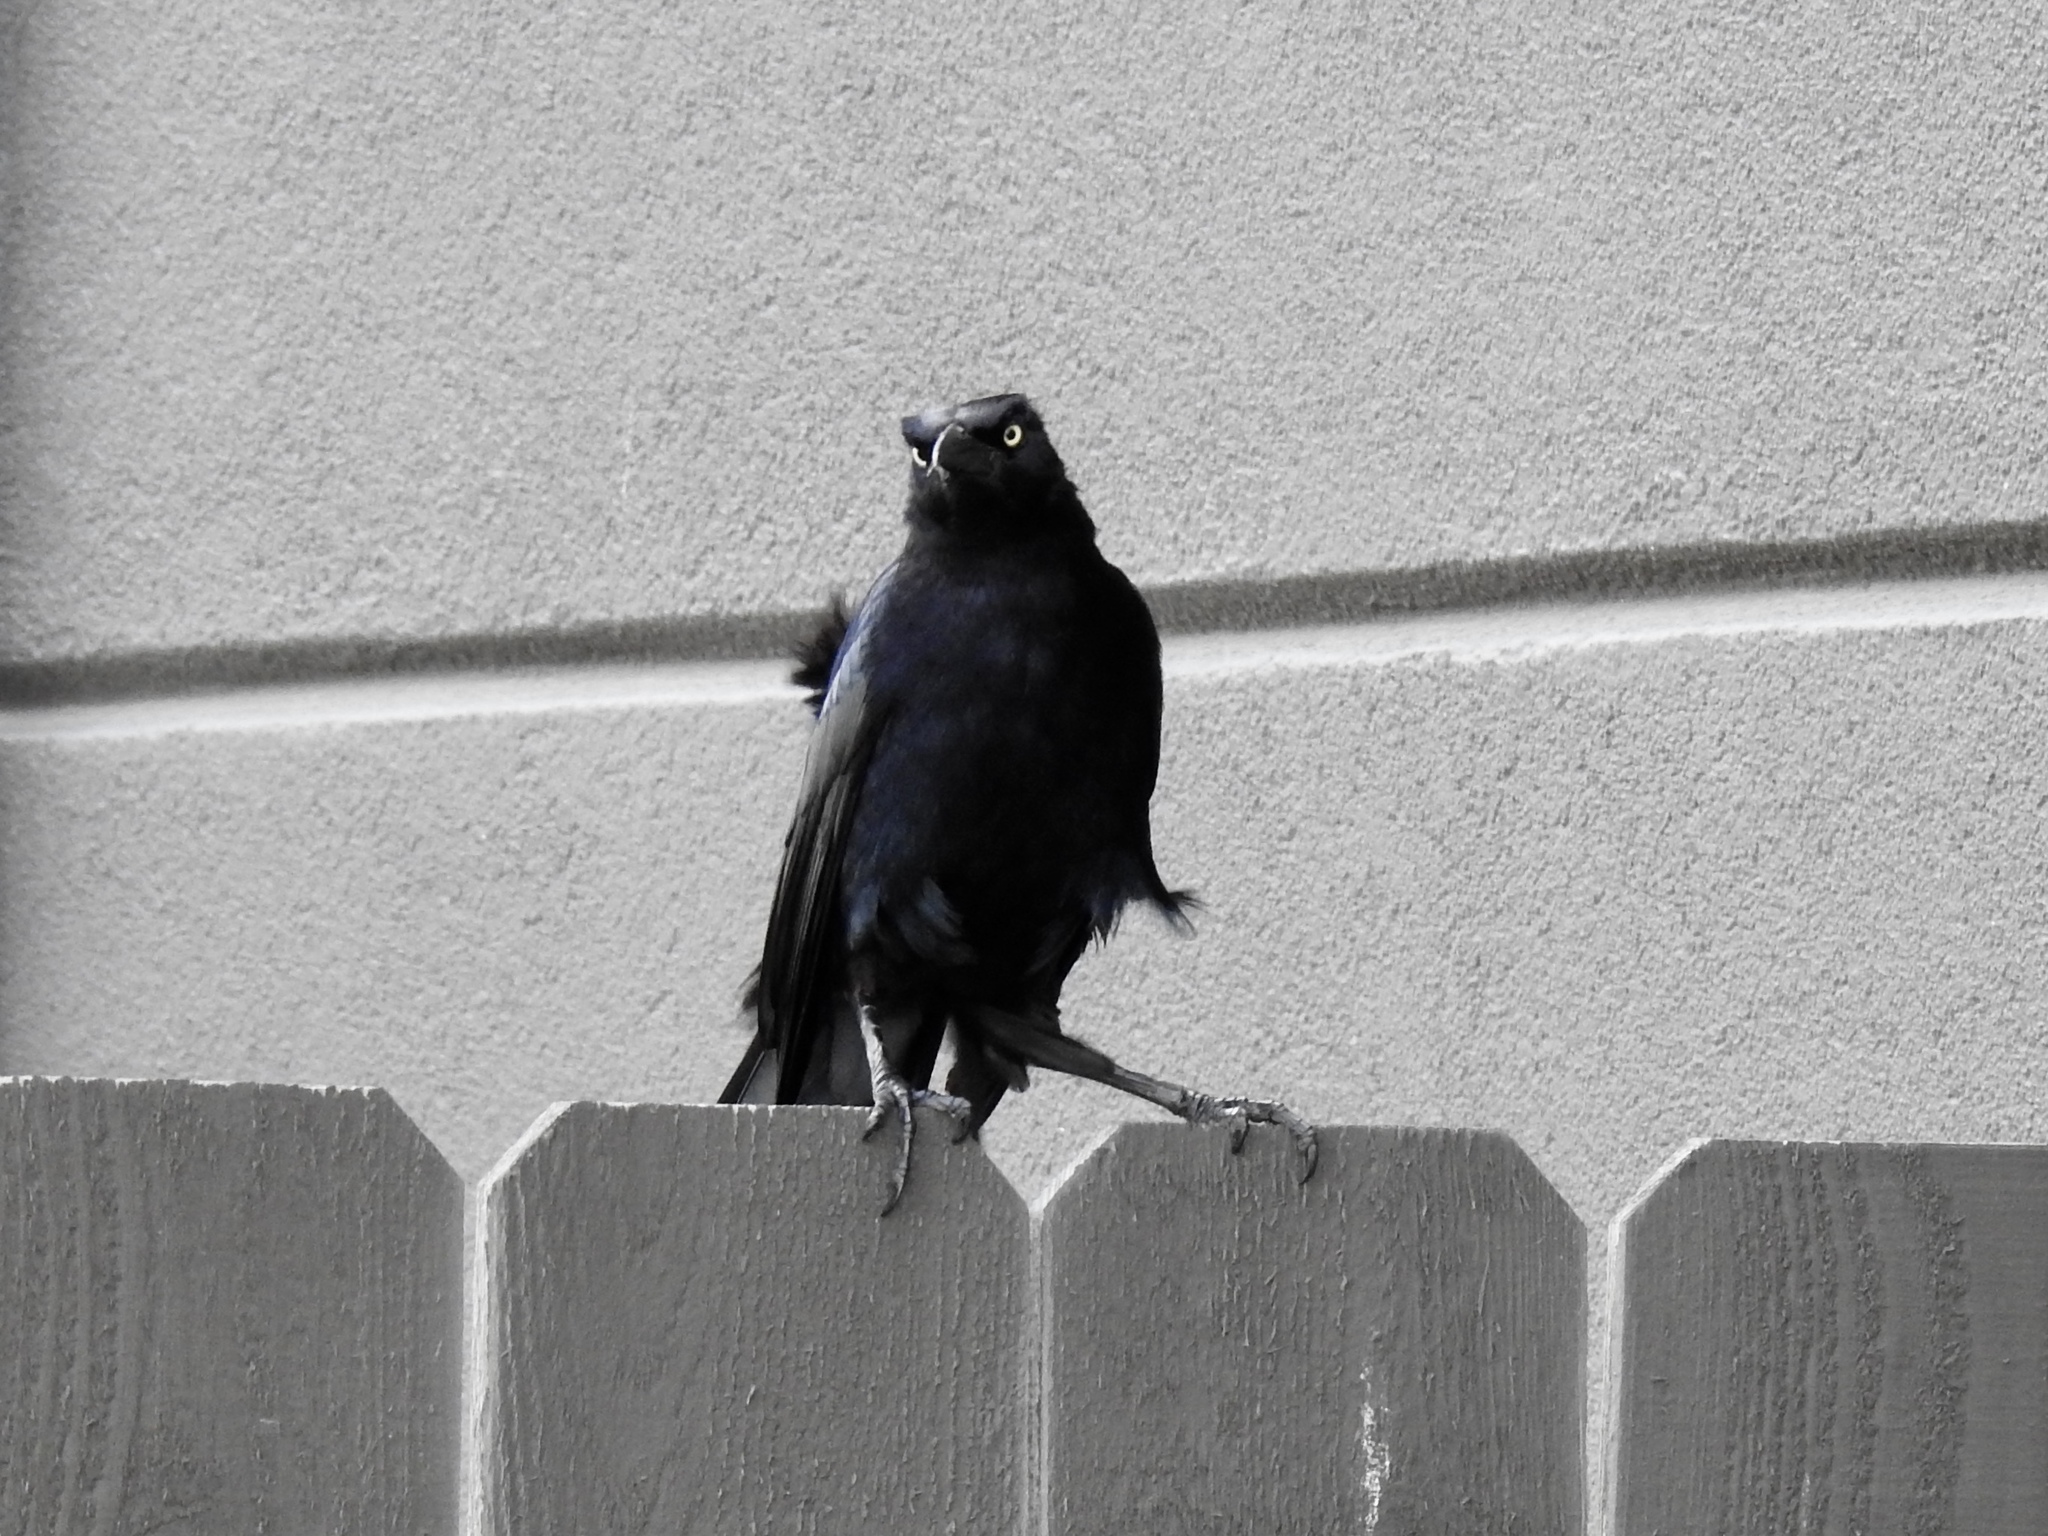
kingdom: Animalia
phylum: Chordata
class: Aves
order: Passeriformes
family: Icteridae
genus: Quiscalus
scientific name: Quiscalus mexicanus
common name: Great-tailed grackle
